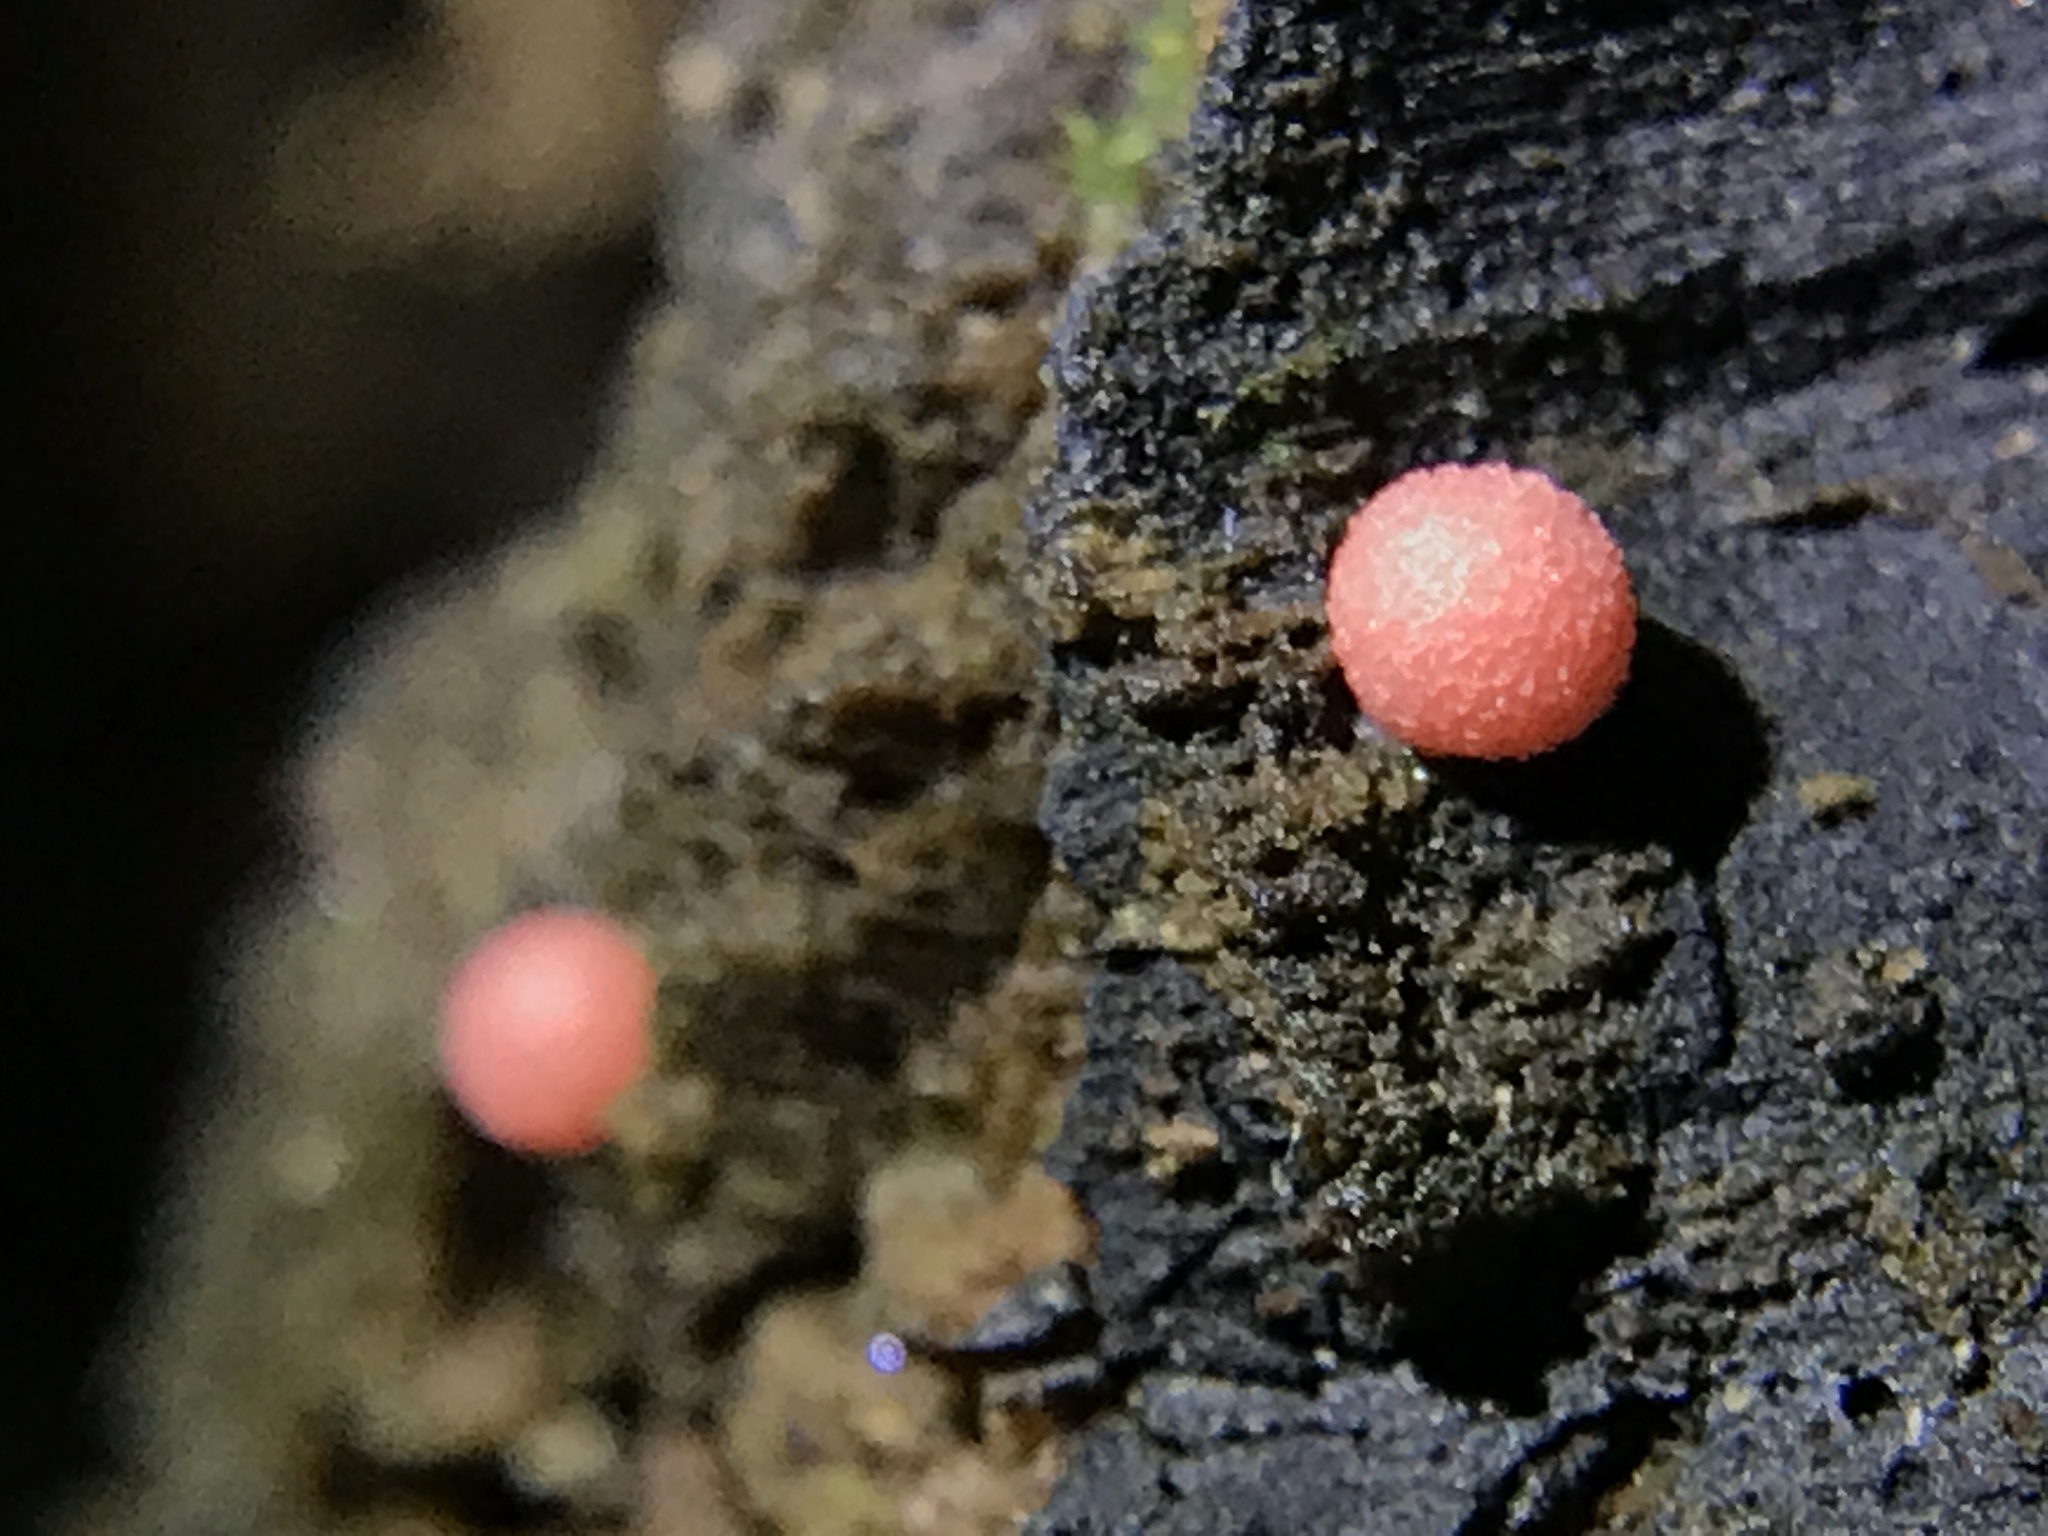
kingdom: Protozoa
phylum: Mycetozoa
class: Myxomycetes
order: Cribrariales
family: Tubiferaceae
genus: Lycogala
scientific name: Lycogala epidendrum
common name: Wolf's milk
